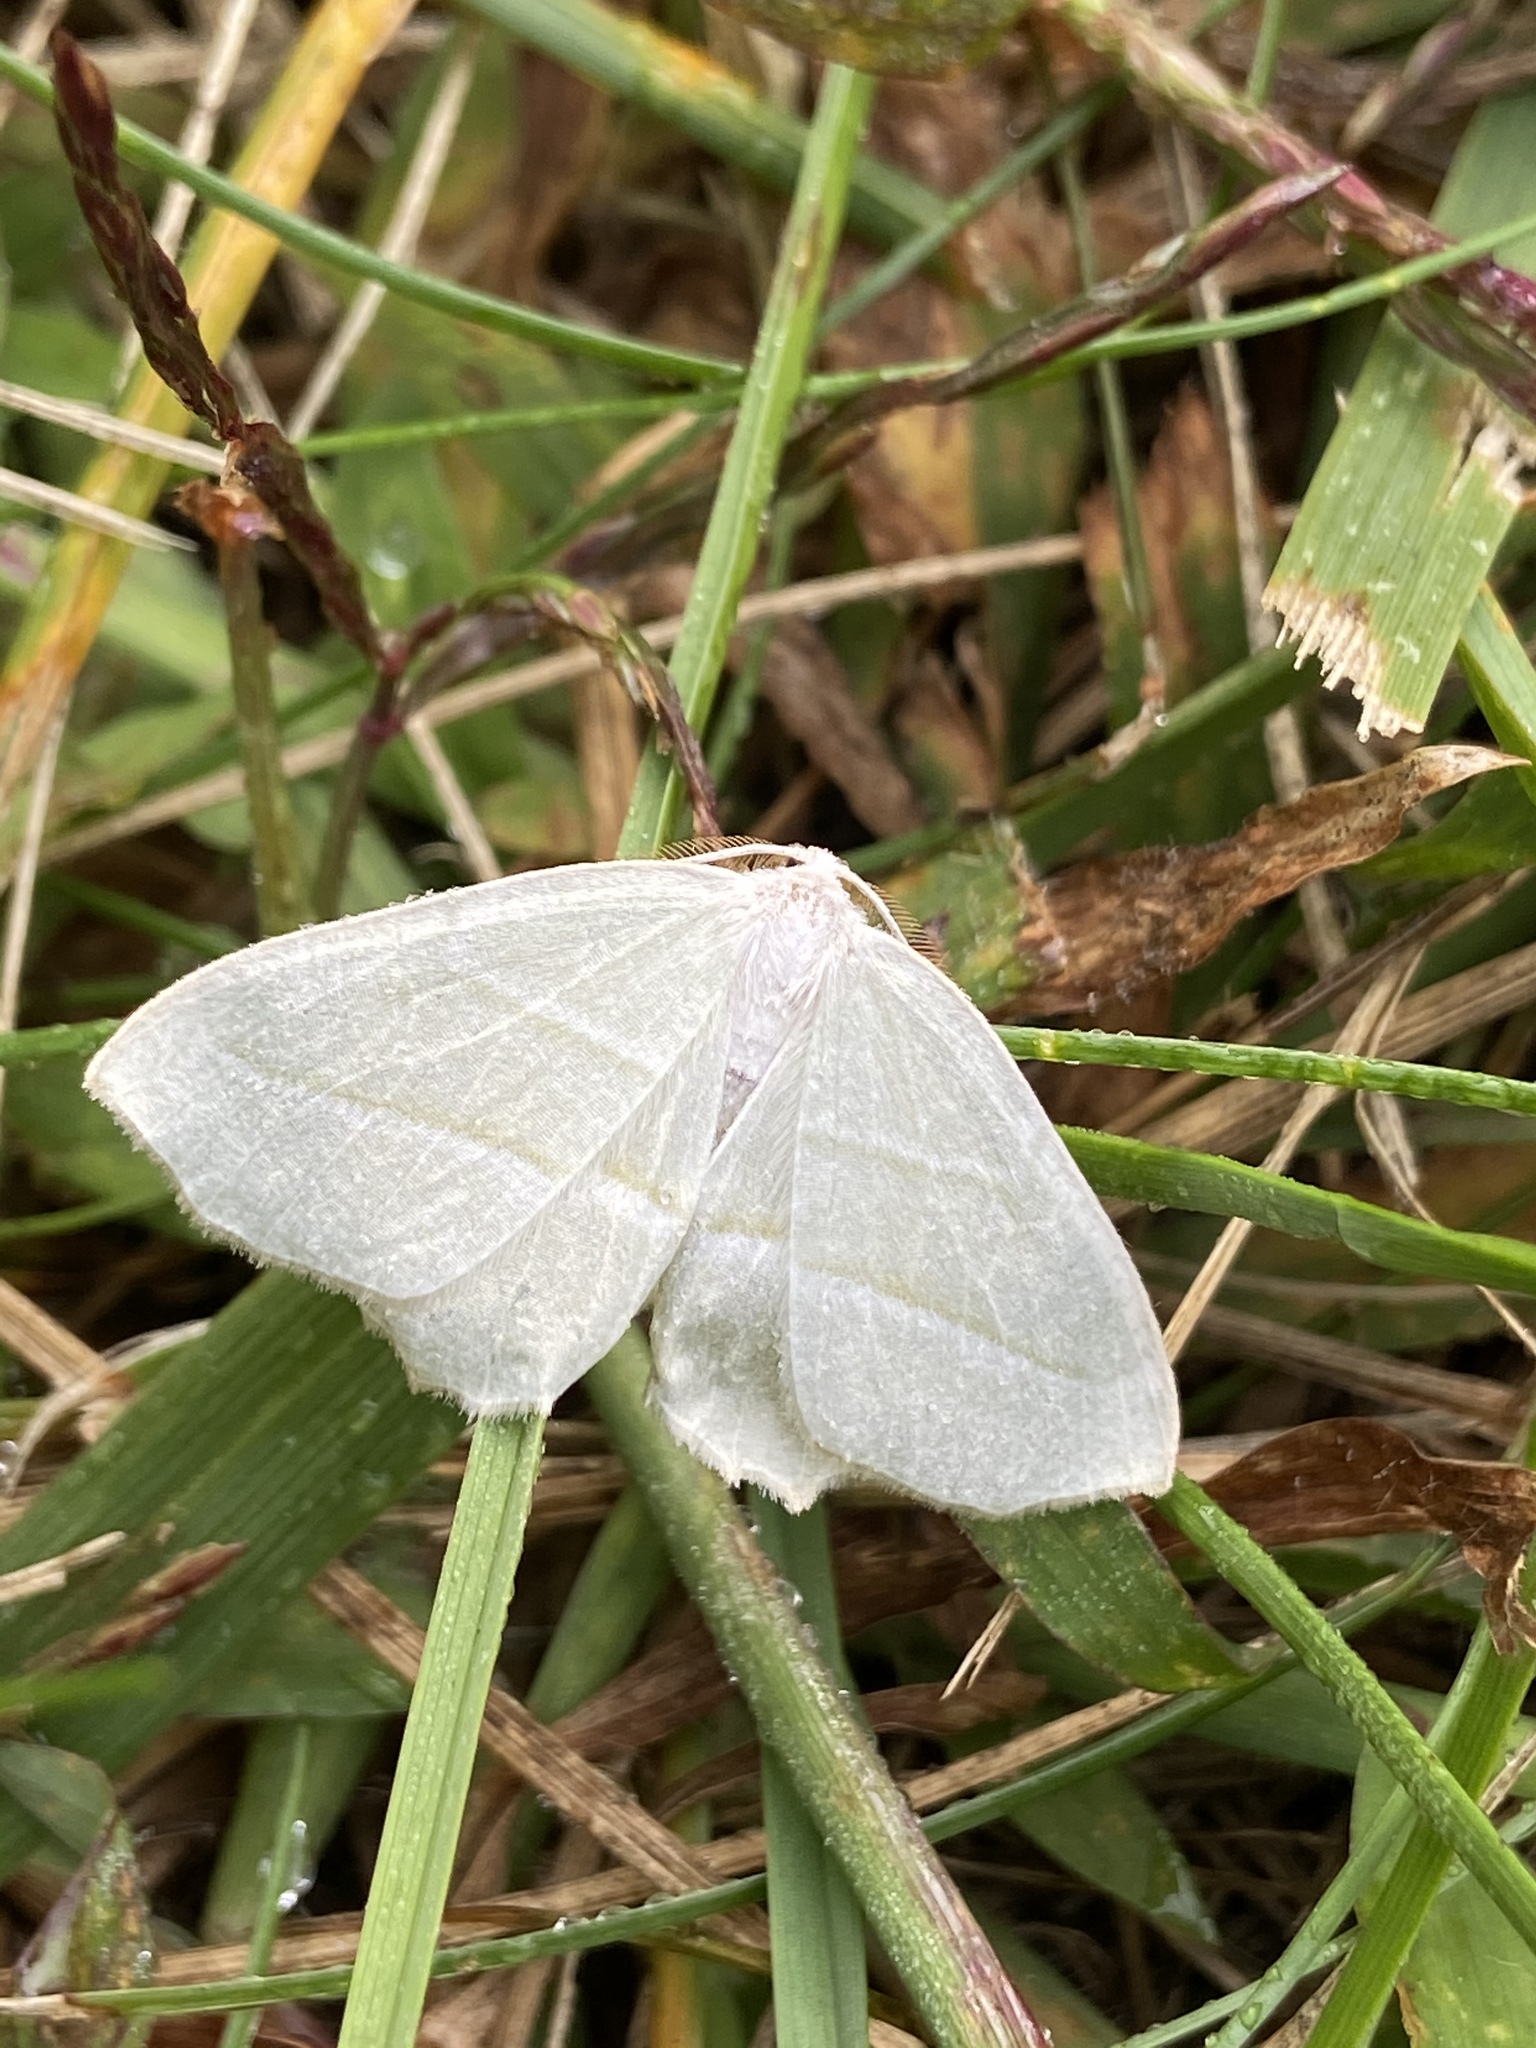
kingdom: Animalia
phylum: Arthropoda
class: Insecta
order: Lepidoptera
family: Geometridae
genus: Campaea
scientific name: Campaea perlata
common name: Fringed looper
